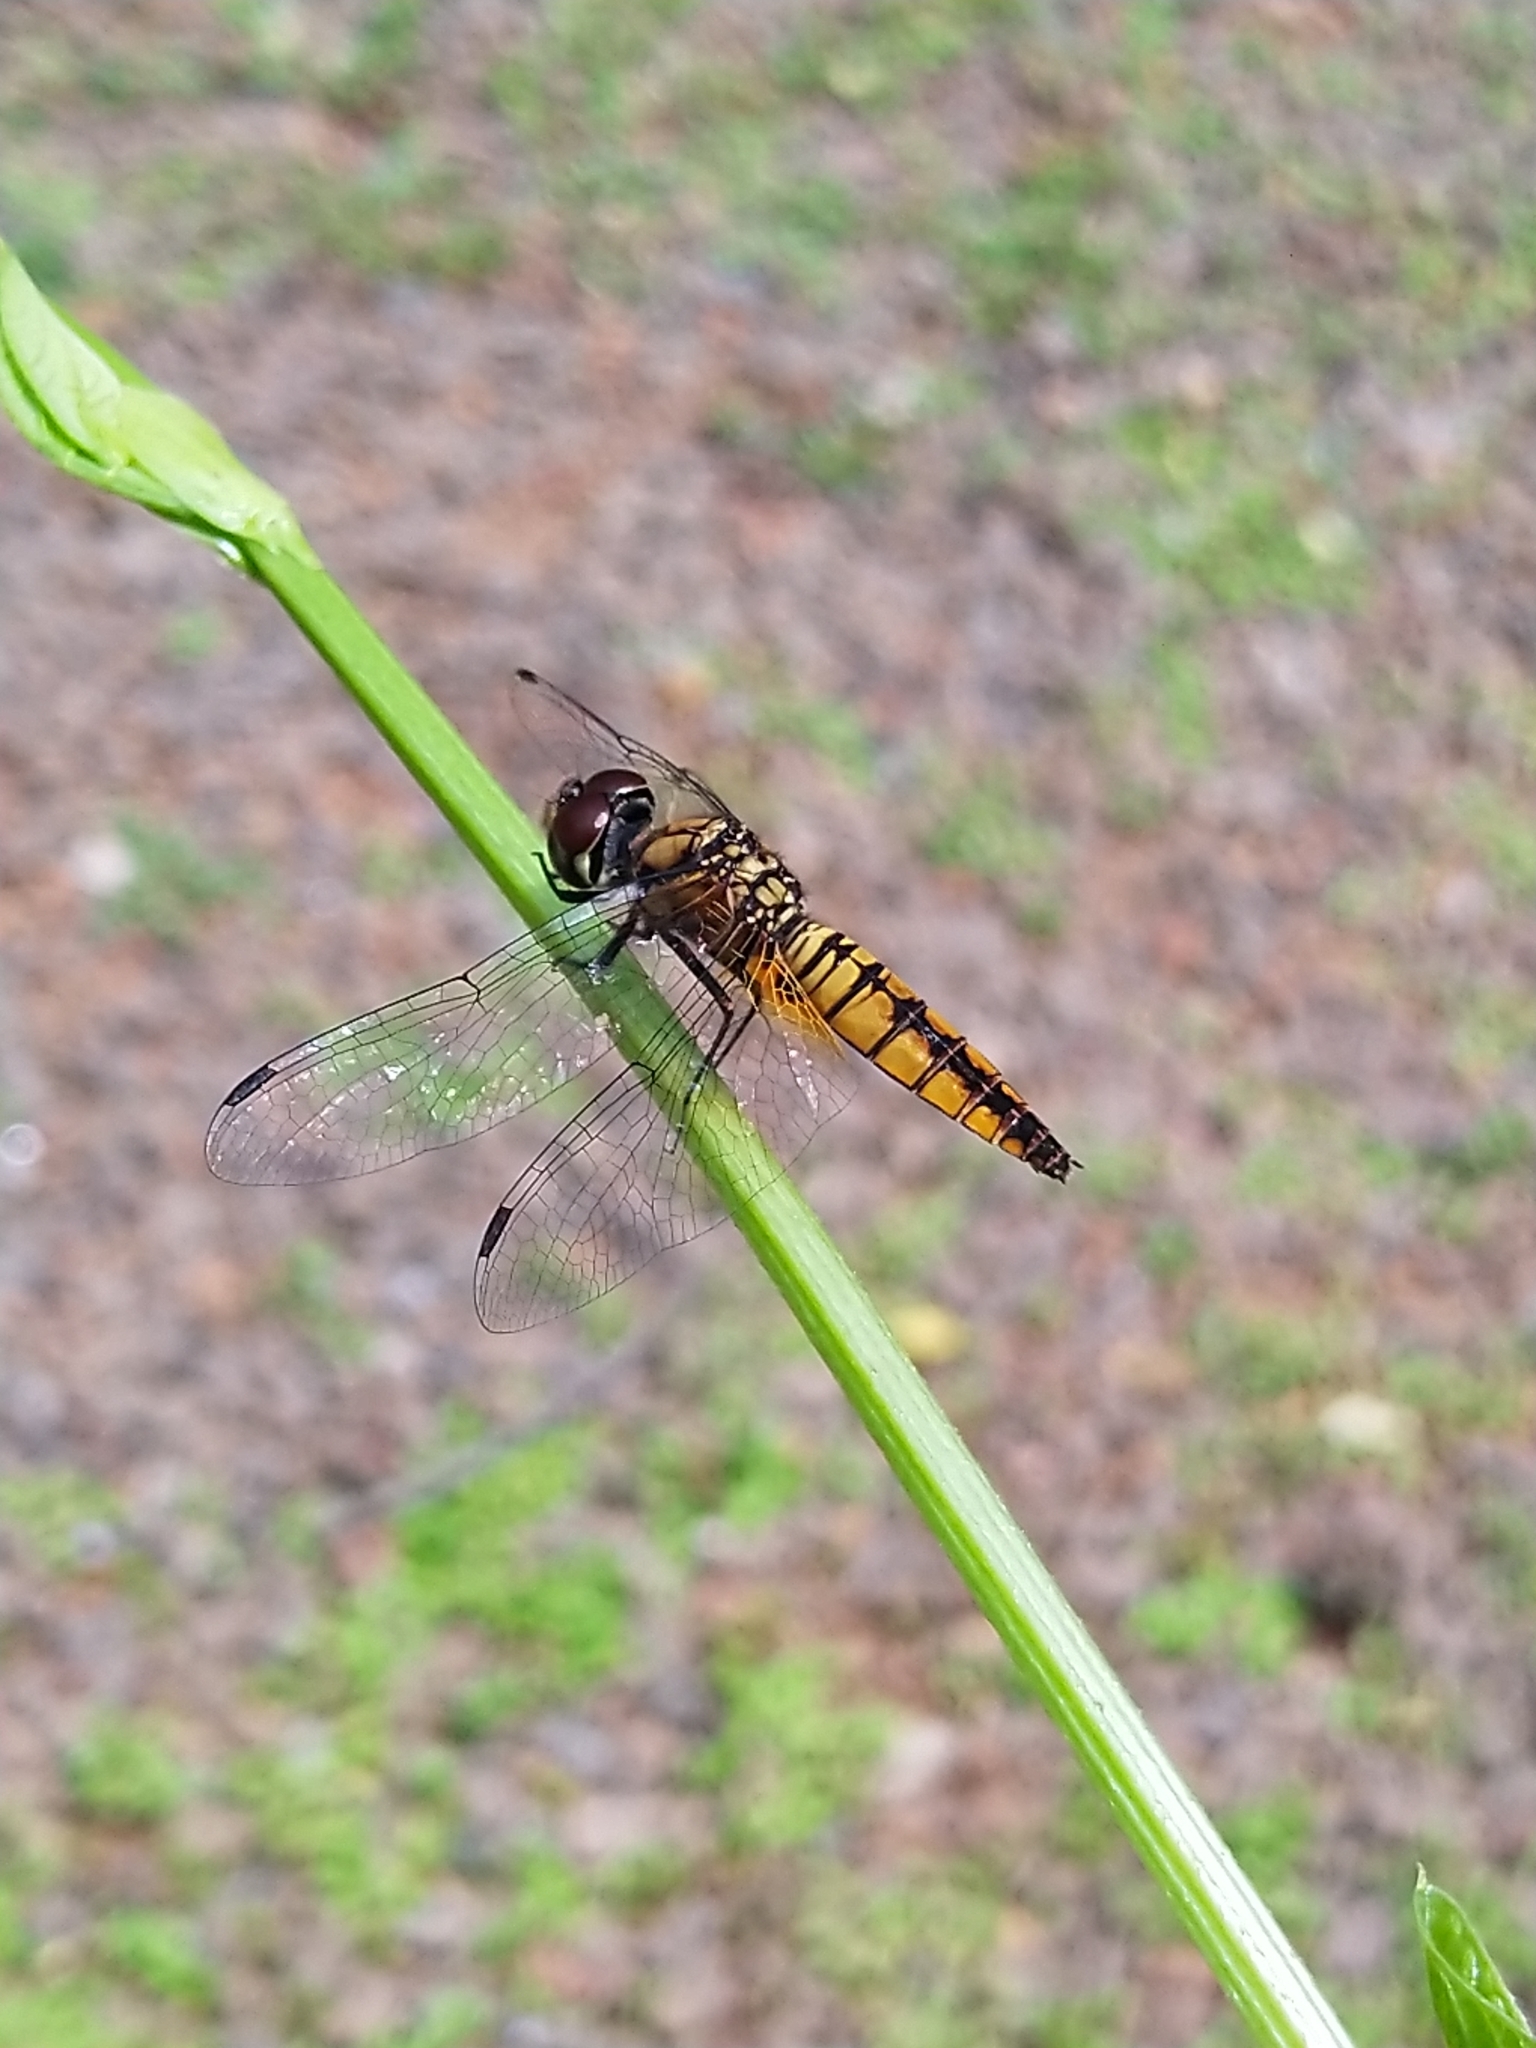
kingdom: Animalia
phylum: Arthropoda
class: Insecta
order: Odonata
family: Libellulidae
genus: Aethriamanta
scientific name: Aethriamanta brevipennis
